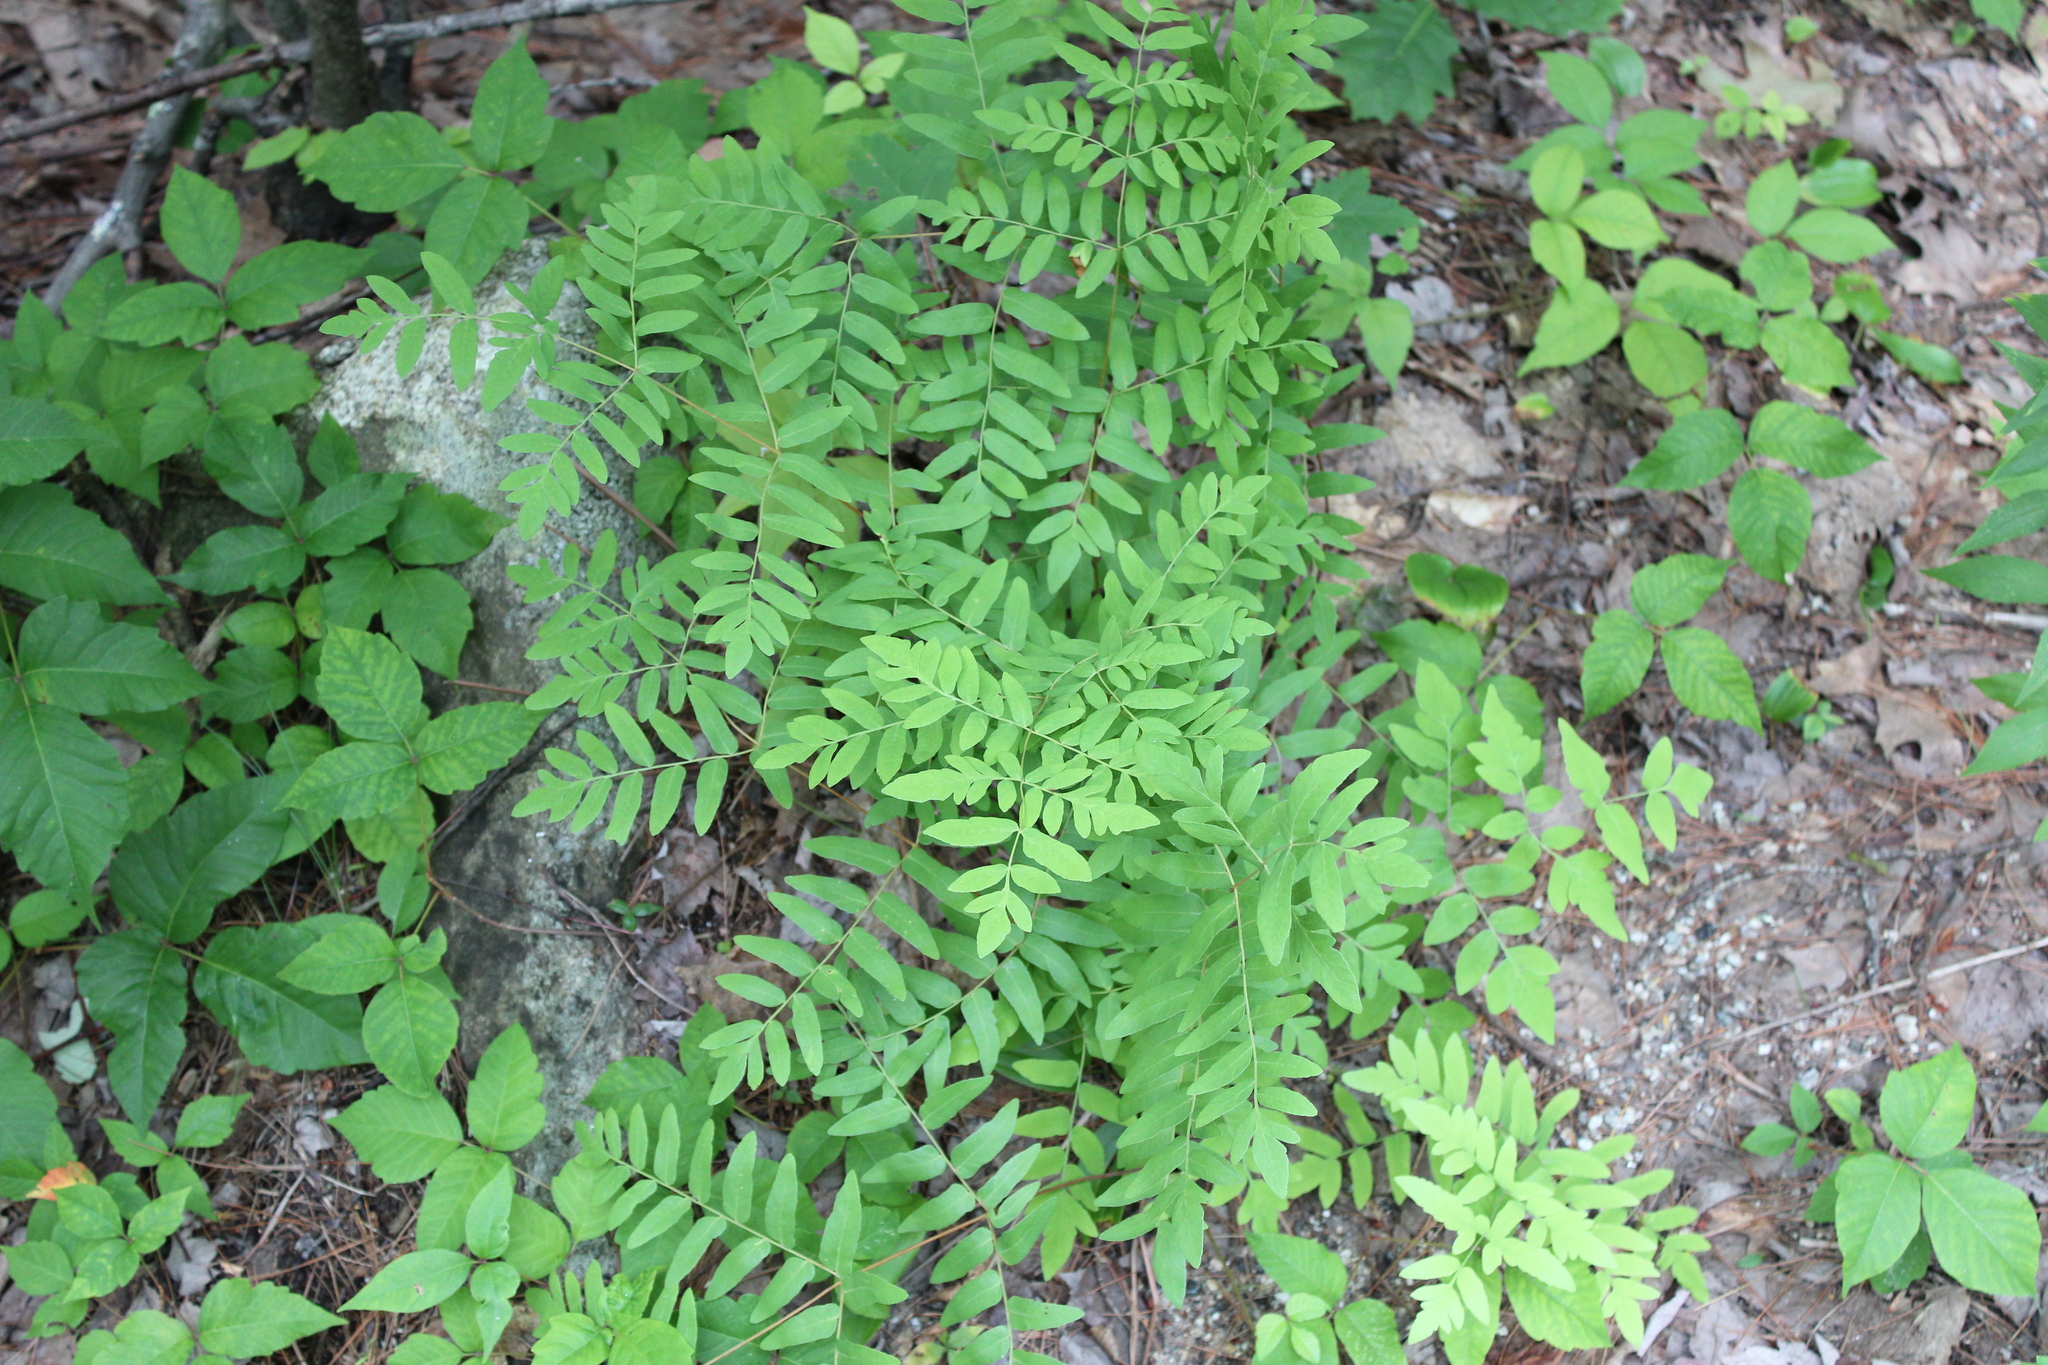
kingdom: Plantae
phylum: Tracheophyta
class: Polypodiopsida
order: Osmundales
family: Osmundaceae
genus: Osmunda
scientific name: Osmunda spectabilis
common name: American royal fern
